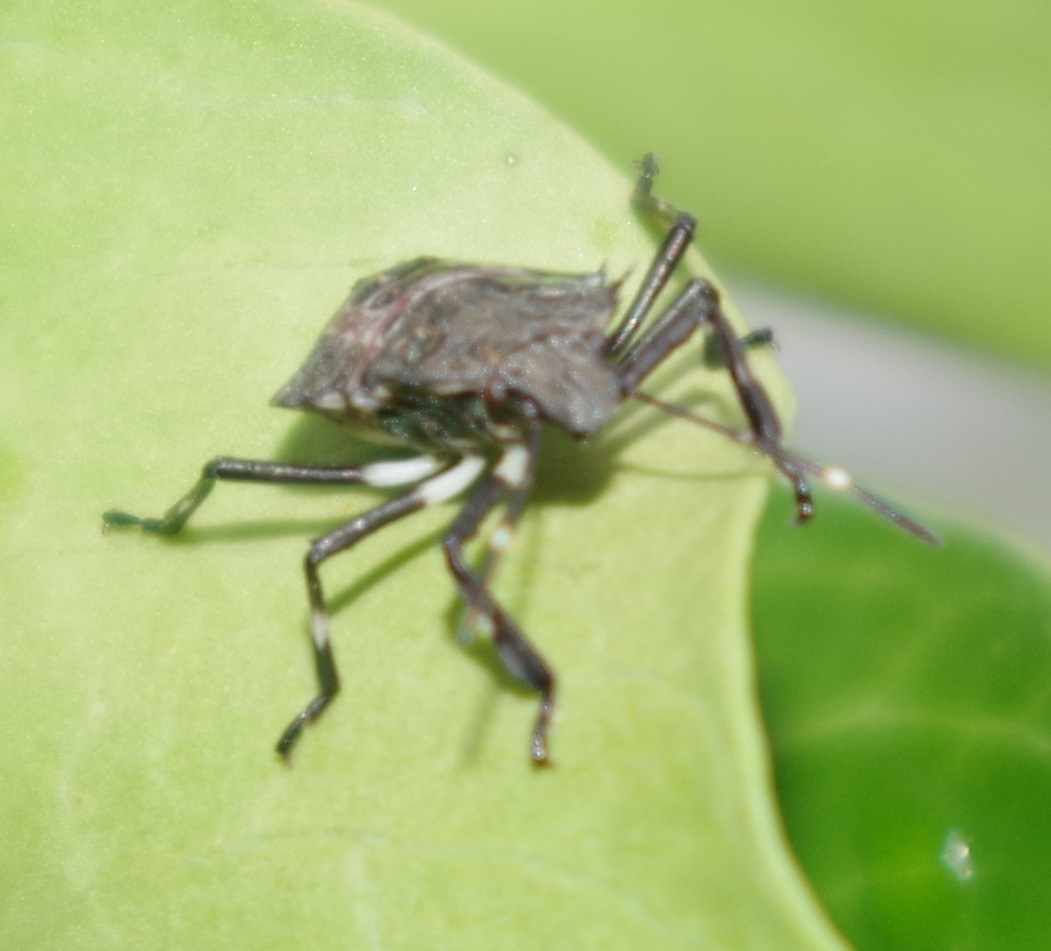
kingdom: Animalia
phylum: Arthropoda
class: Insecta
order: Hemiptera
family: Pentatomidae
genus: Halyomorpha
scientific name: Halyomorpha halys
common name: Brown marmorated stink bug
